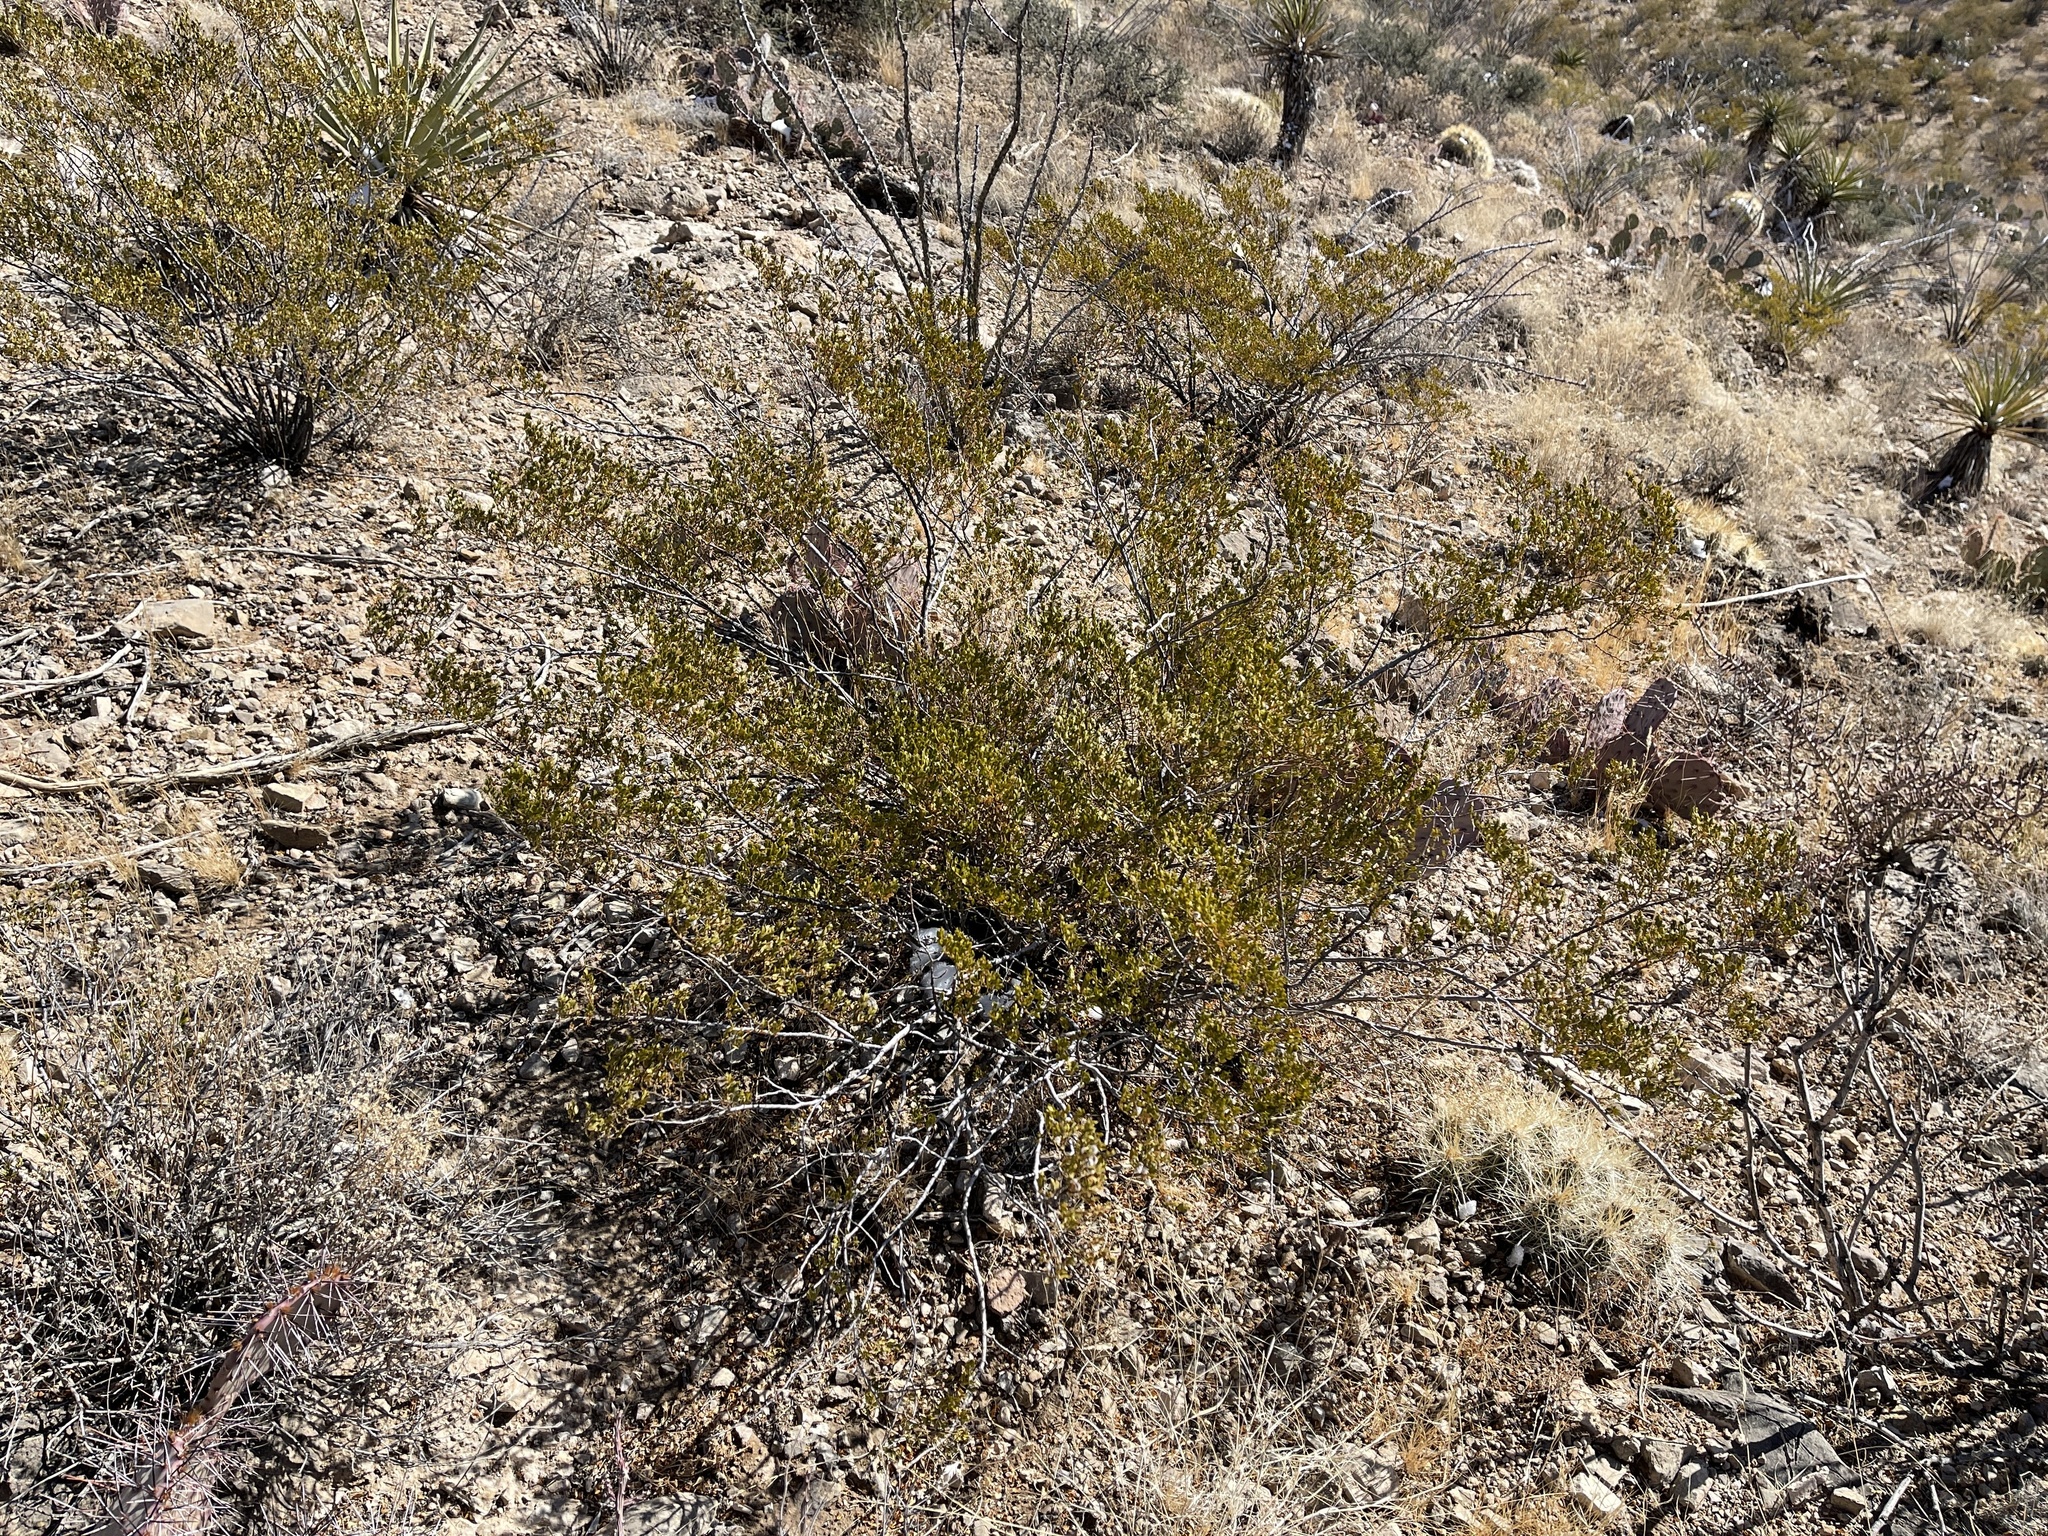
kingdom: Plantae
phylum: Tracheophyta
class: Magnoliopsida
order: Zygophyllales
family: Zygophyllaceae
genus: Larrea
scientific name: Larrea tridentata
